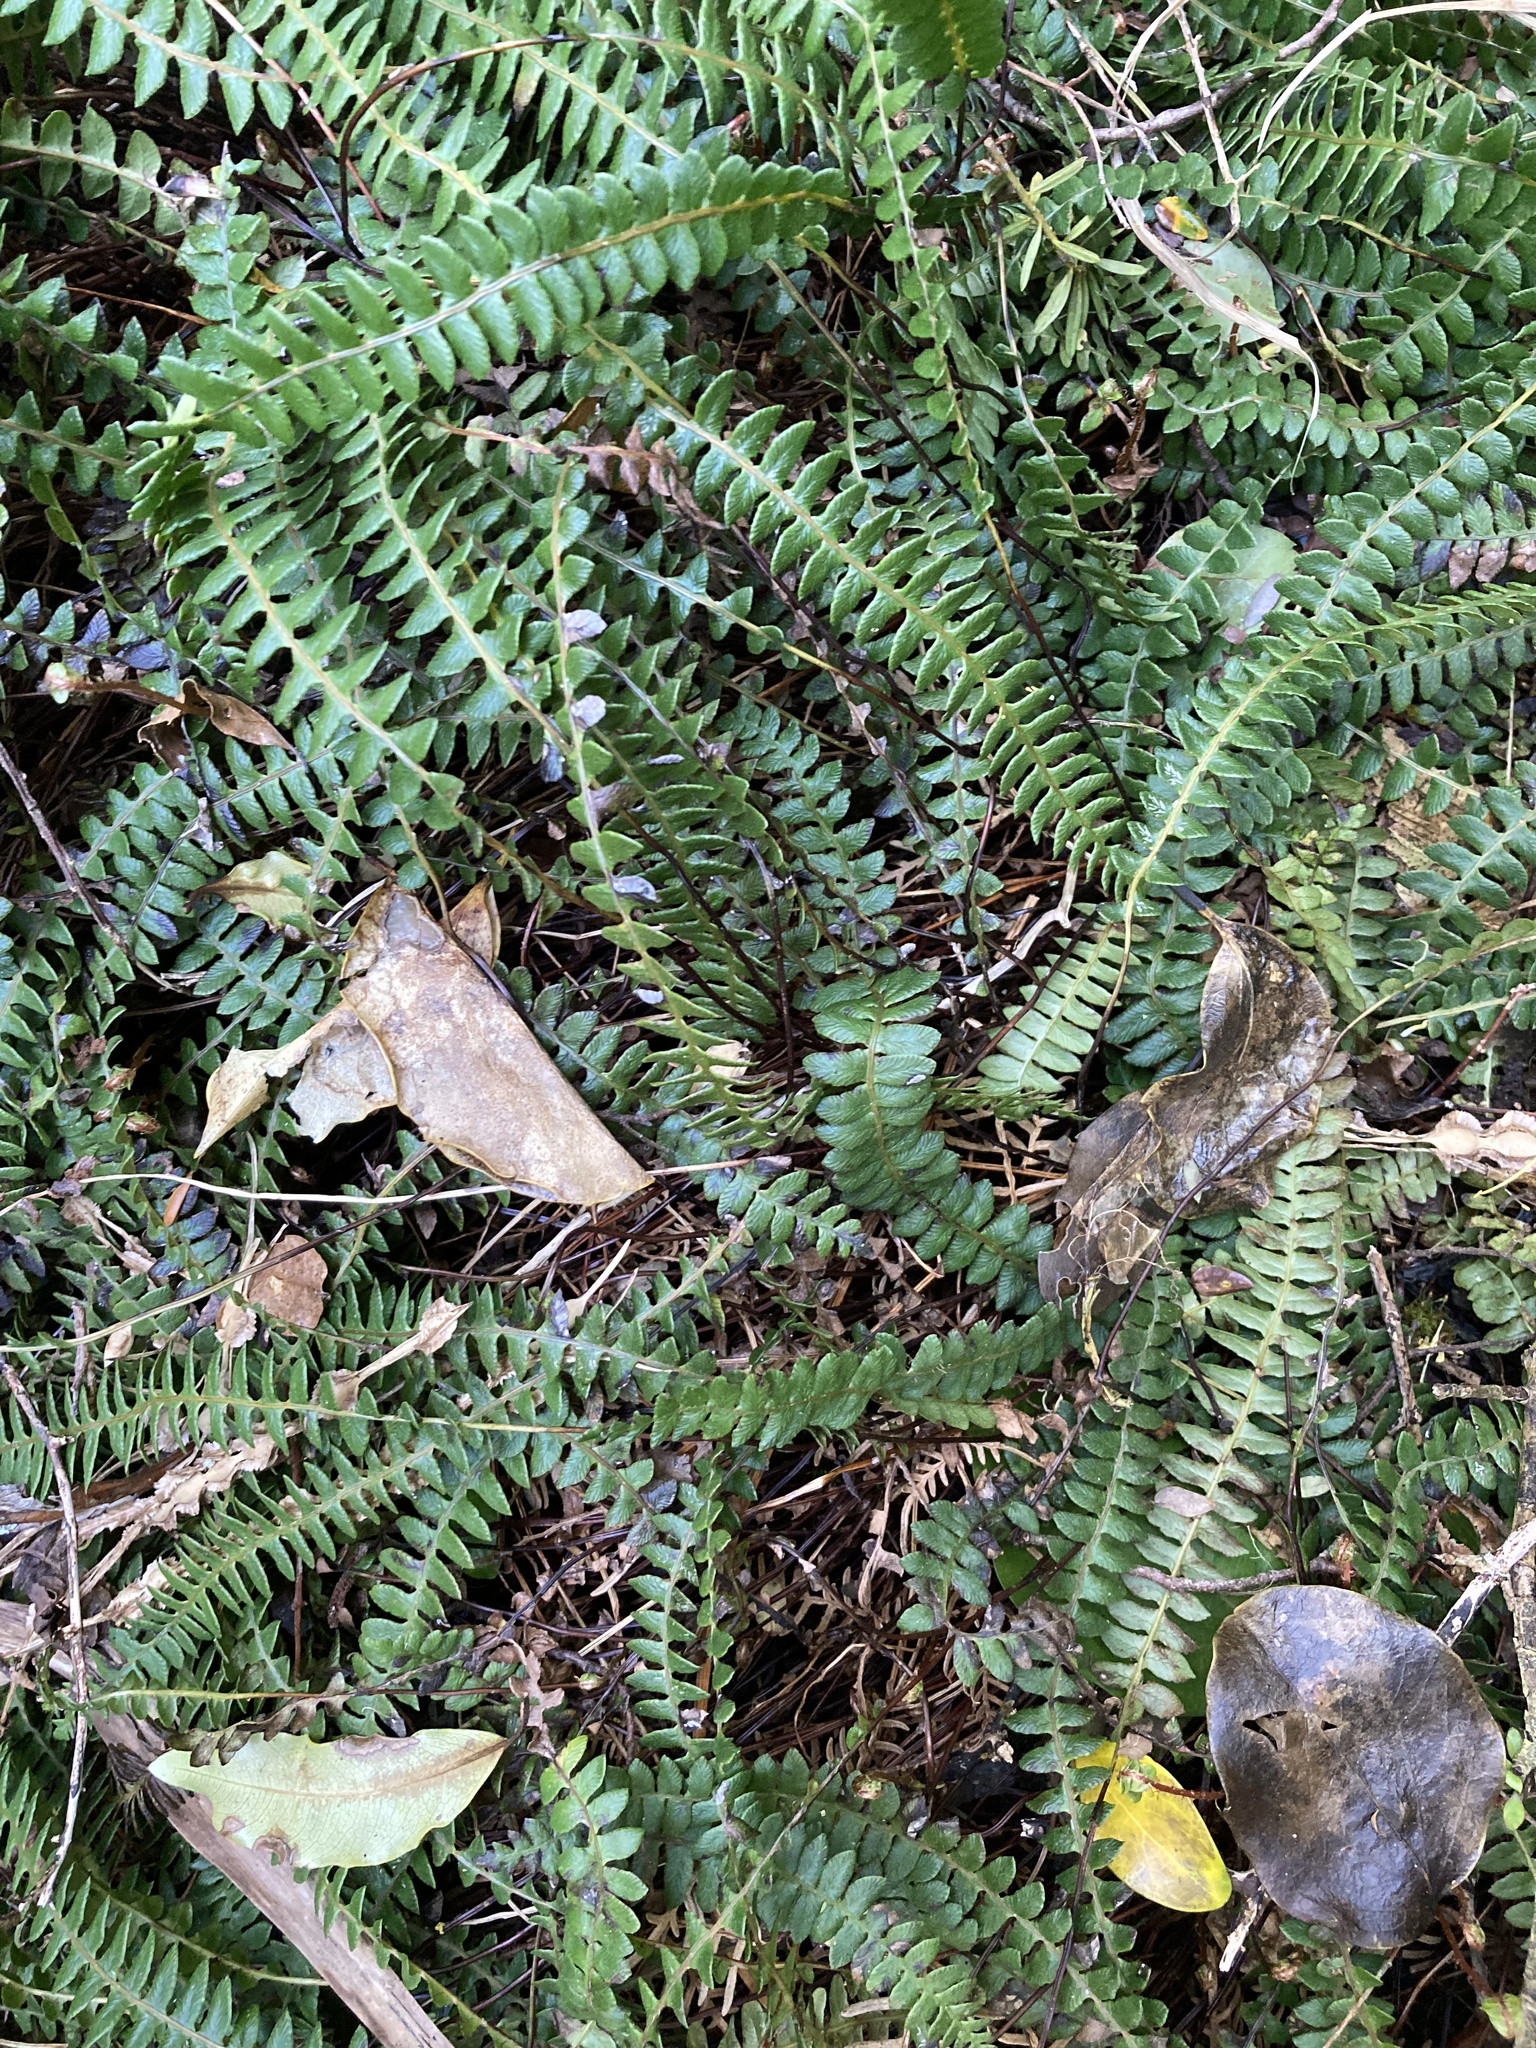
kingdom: Plantae
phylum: Tracheophyta
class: Polypodiopsida
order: Polypodiales
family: Blechnaceae
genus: Austroblechnum
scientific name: Austroblechnum penna-marina
